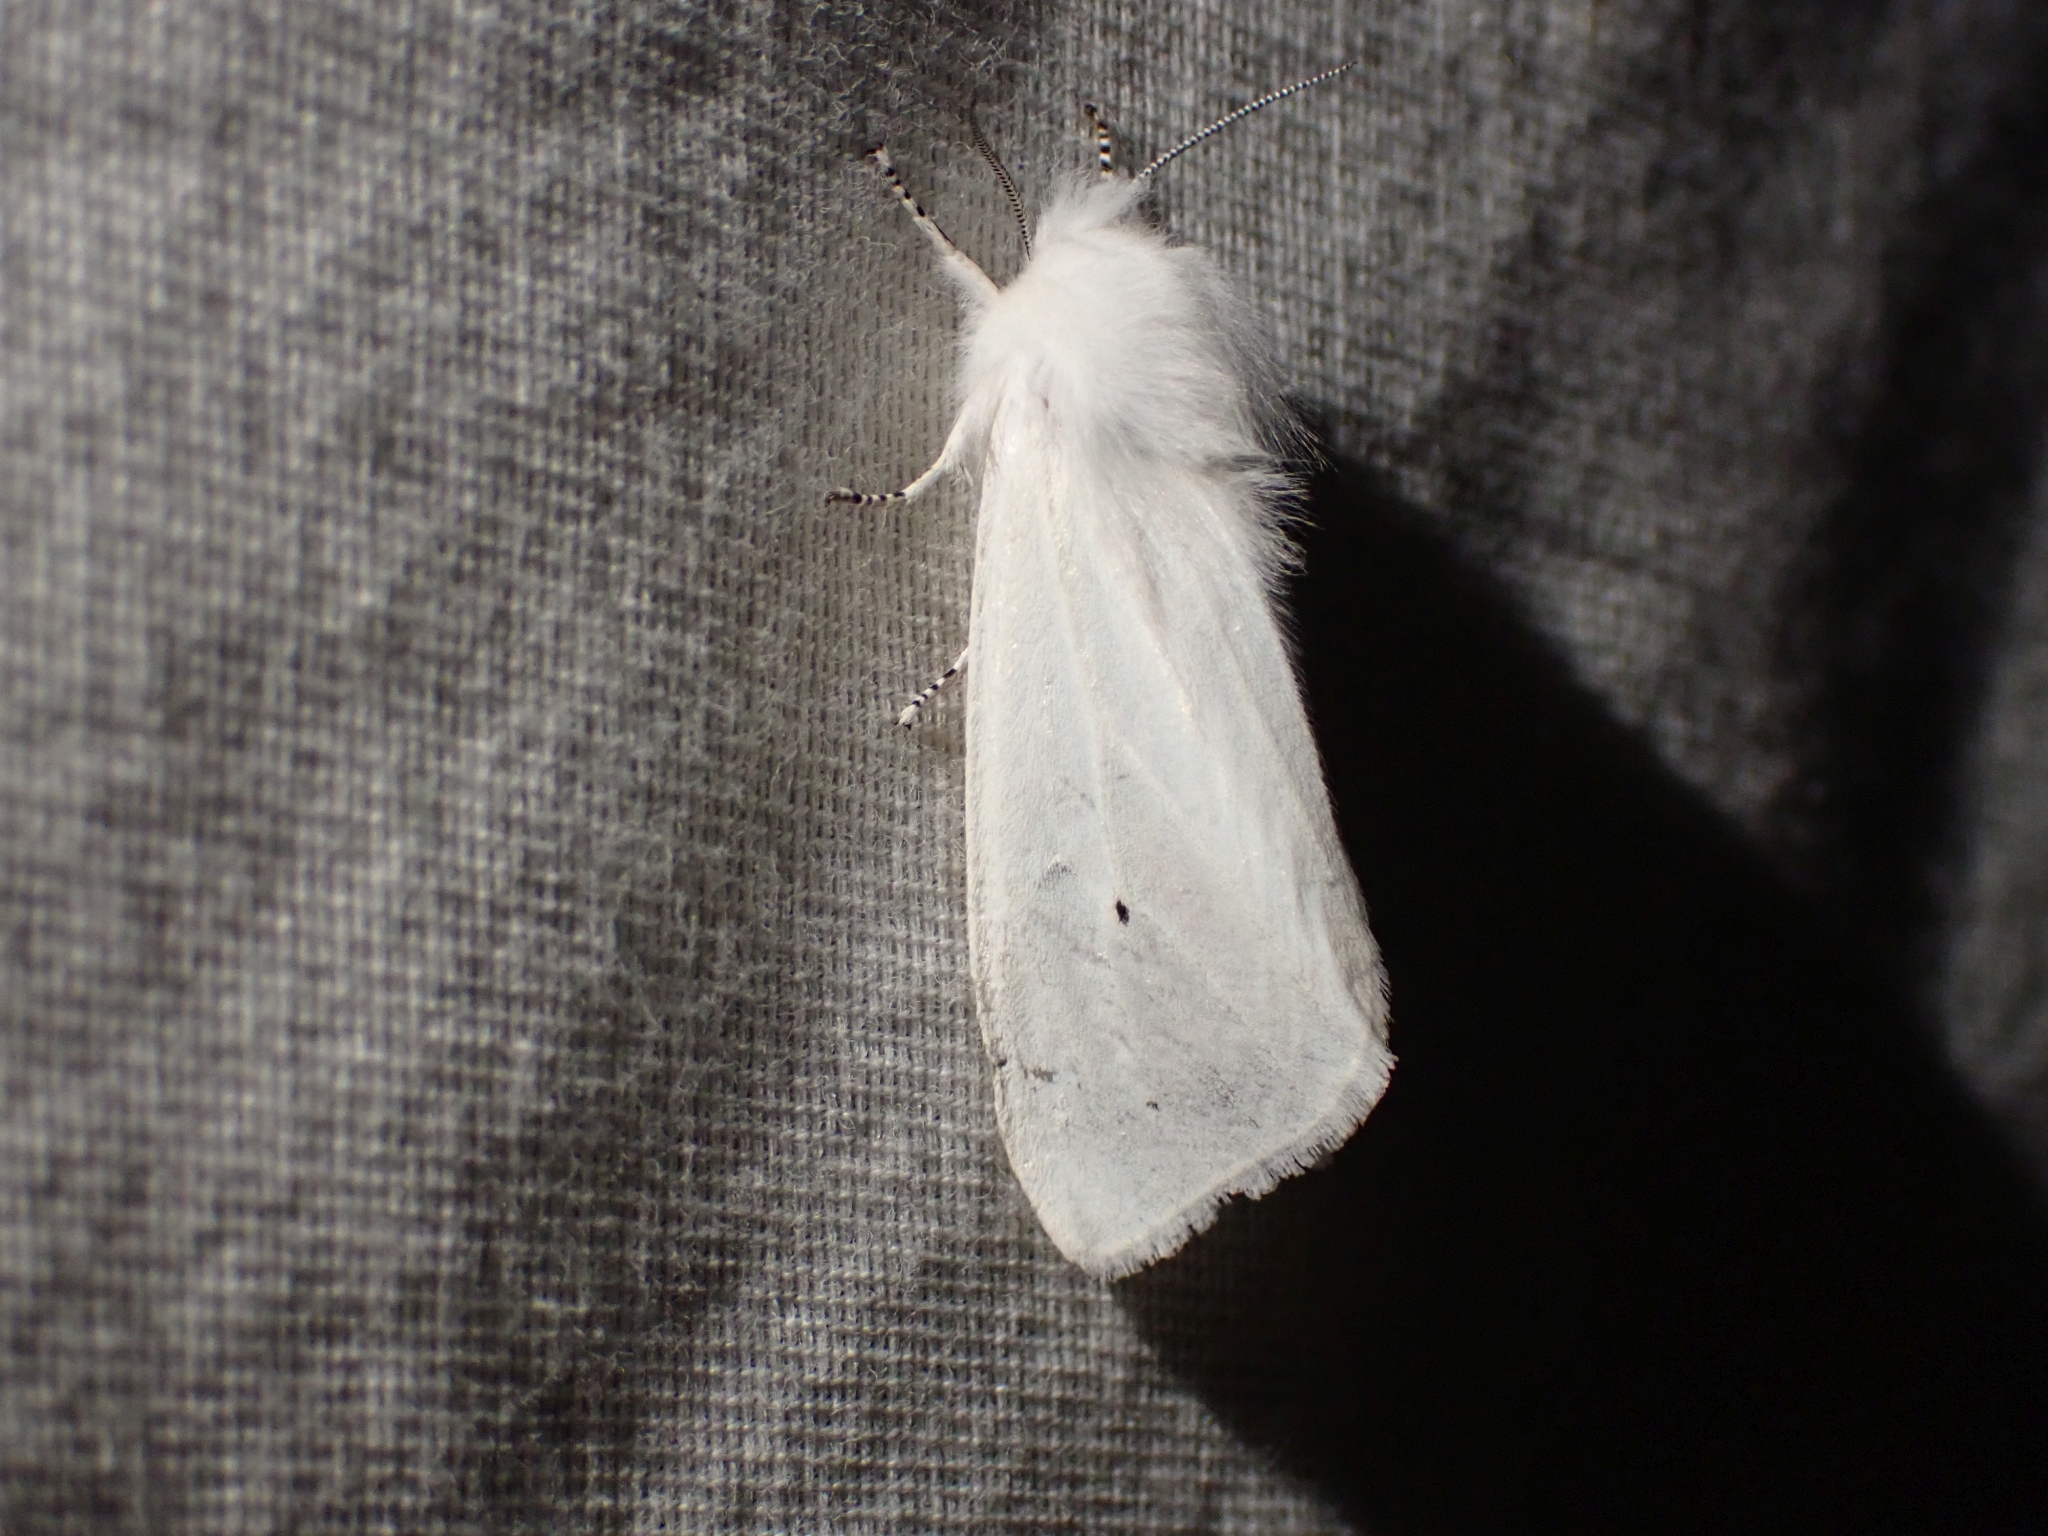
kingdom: Animalia
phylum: Arthropoda
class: Insecta
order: Lepidoptera
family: Erebidae
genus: Spilosoma
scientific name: Spilosoma virginica
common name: Virginia tiger moth
